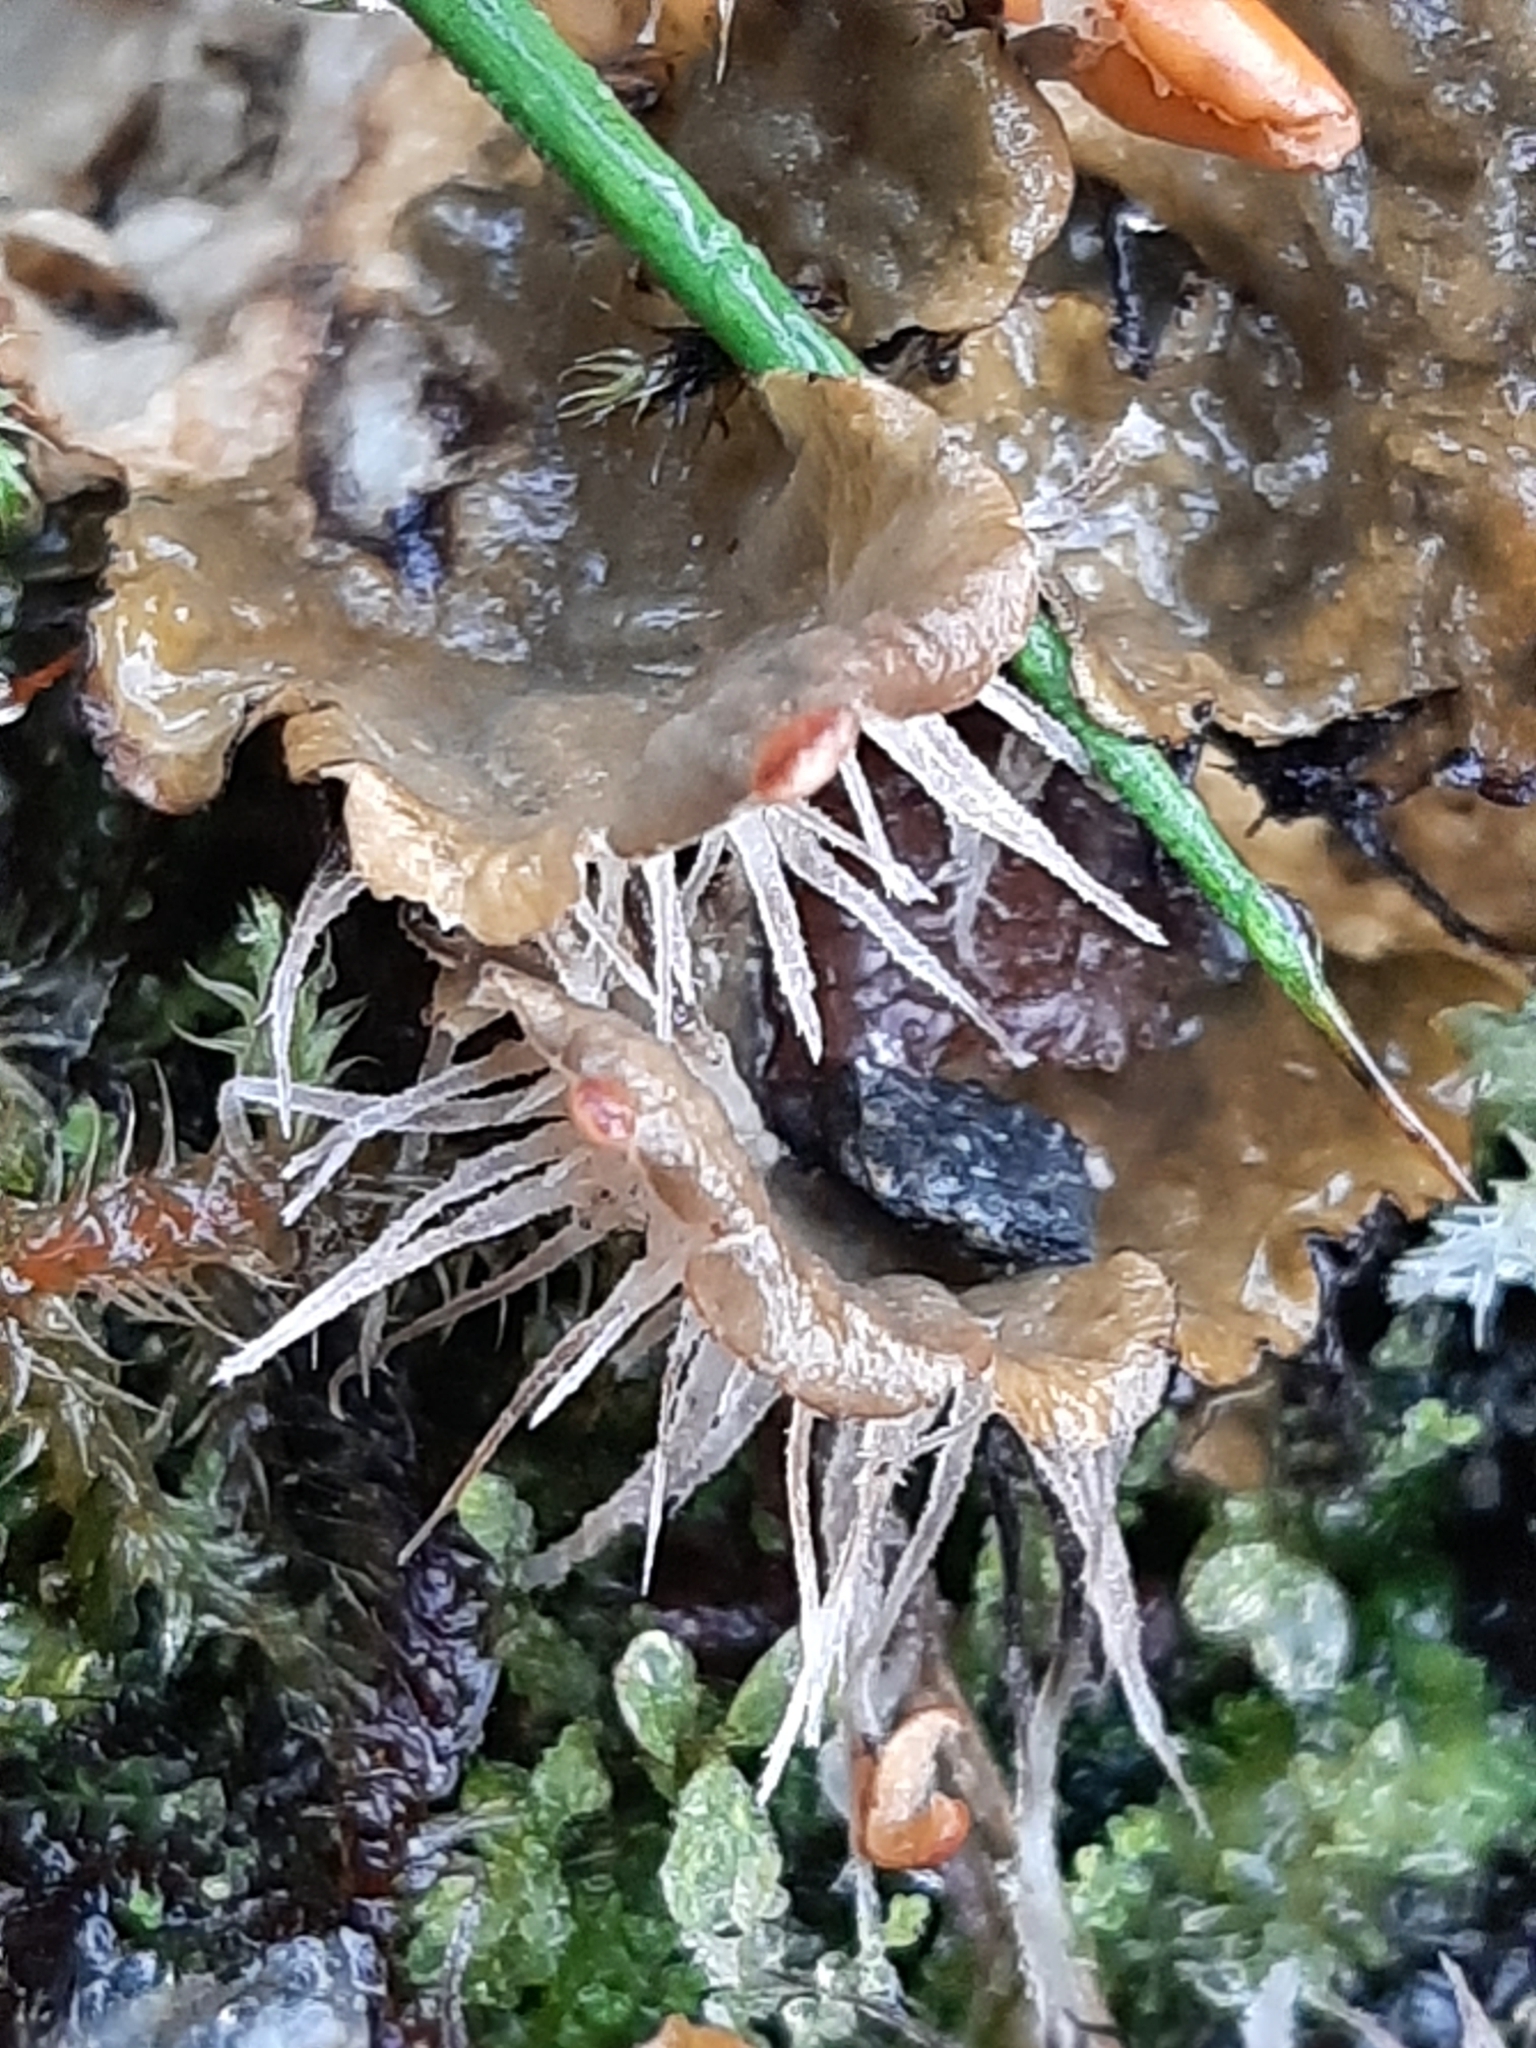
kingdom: Fungi
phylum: Ascomycota
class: Lecanoromycetes
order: Peltigerales
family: Peltigeraceae
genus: Peltigera
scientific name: Peltigera membranacea
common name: Membranous pelt lichen
